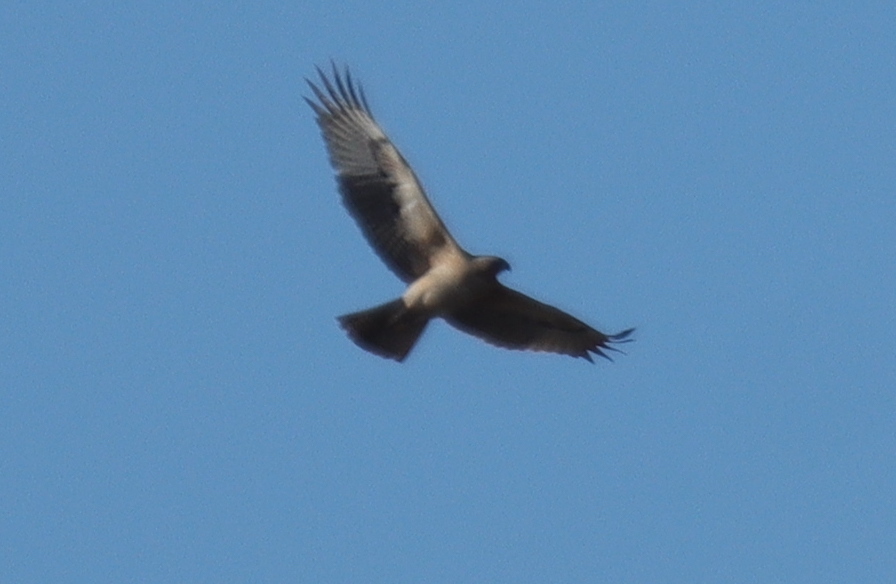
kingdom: Animalia
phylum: Chordata
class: Aves
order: Accipitriformes
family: Accipitridae
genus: Aquila
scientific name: Aquila fasciata
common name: Bonelli's eagle
